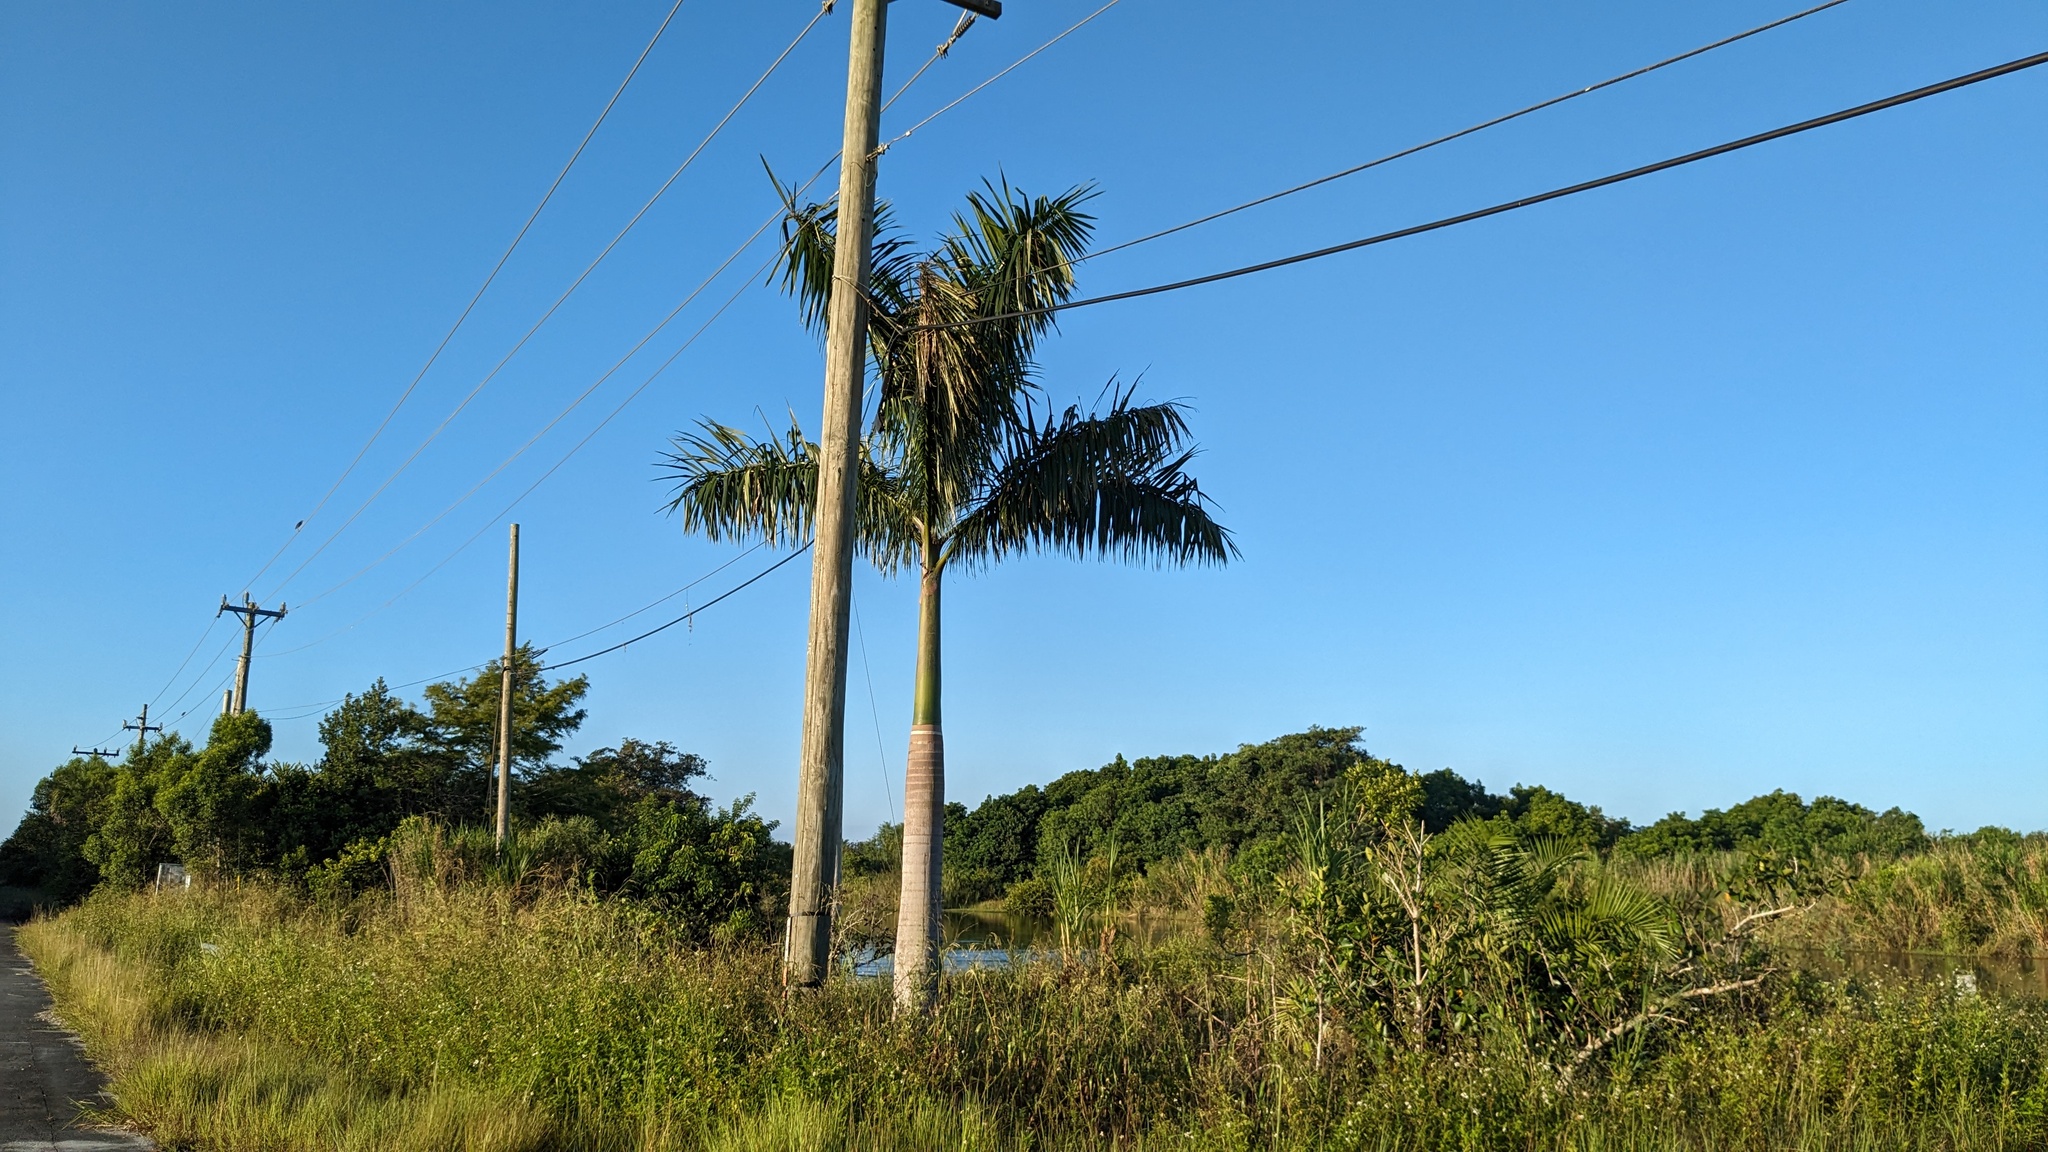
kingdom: Plantae
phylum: Tracheophyta
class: Liliopsida
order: Arecales
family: Arecaceae
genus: Roystonea
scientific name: Roystonea regia
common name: Florida royal palm
